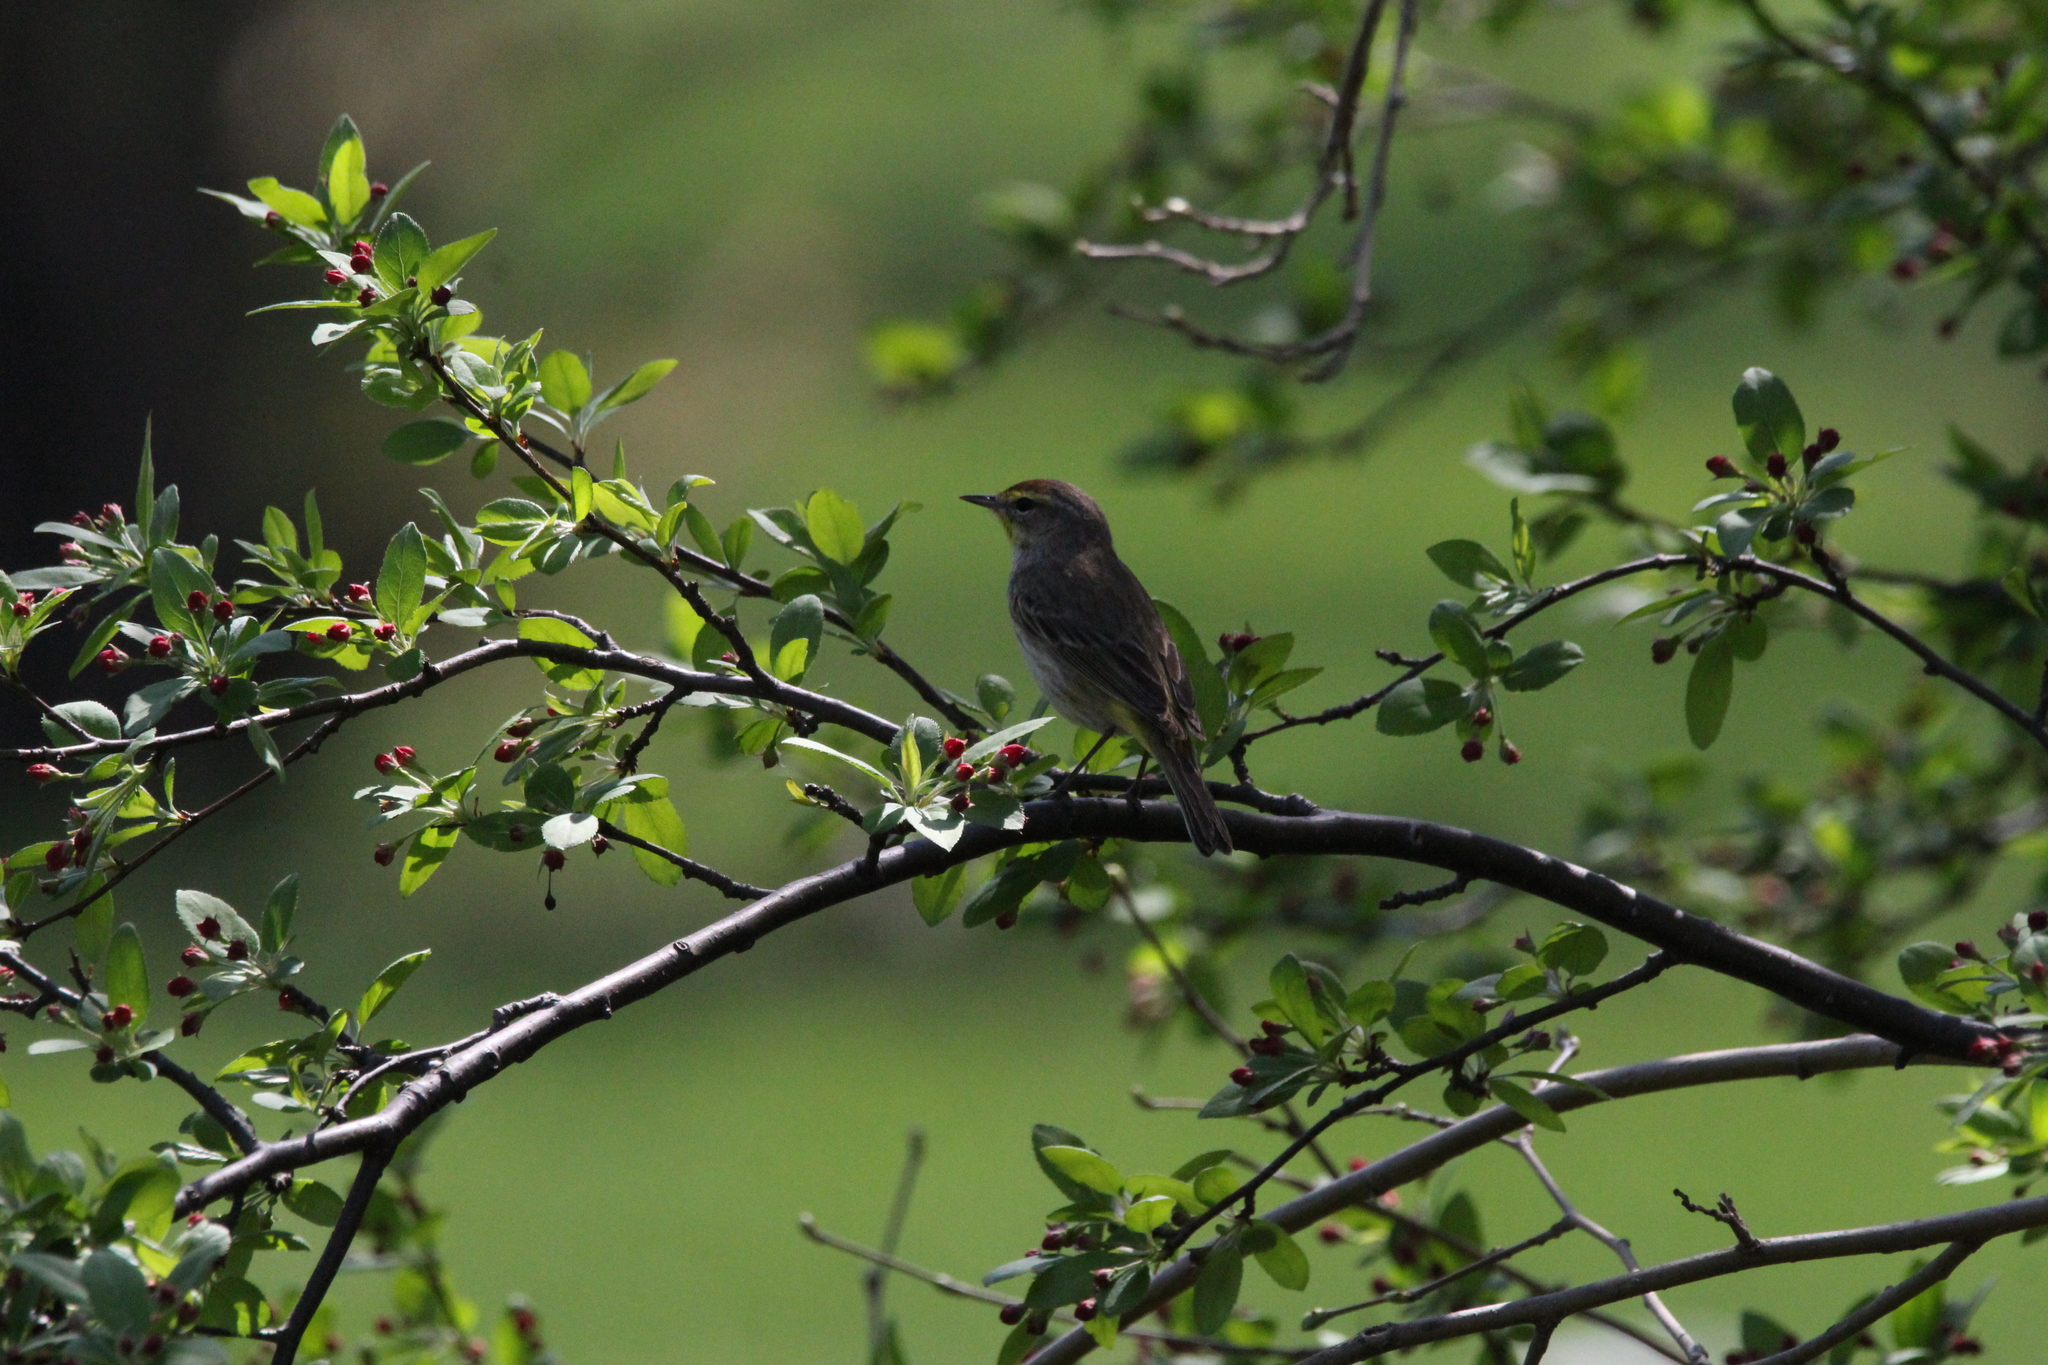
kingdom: Animalia
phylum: Chordata
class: Aves
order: Passeriformes
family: Parulidae
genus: Setophaga
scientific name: Setophaga palmarum
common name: Palm warbler
